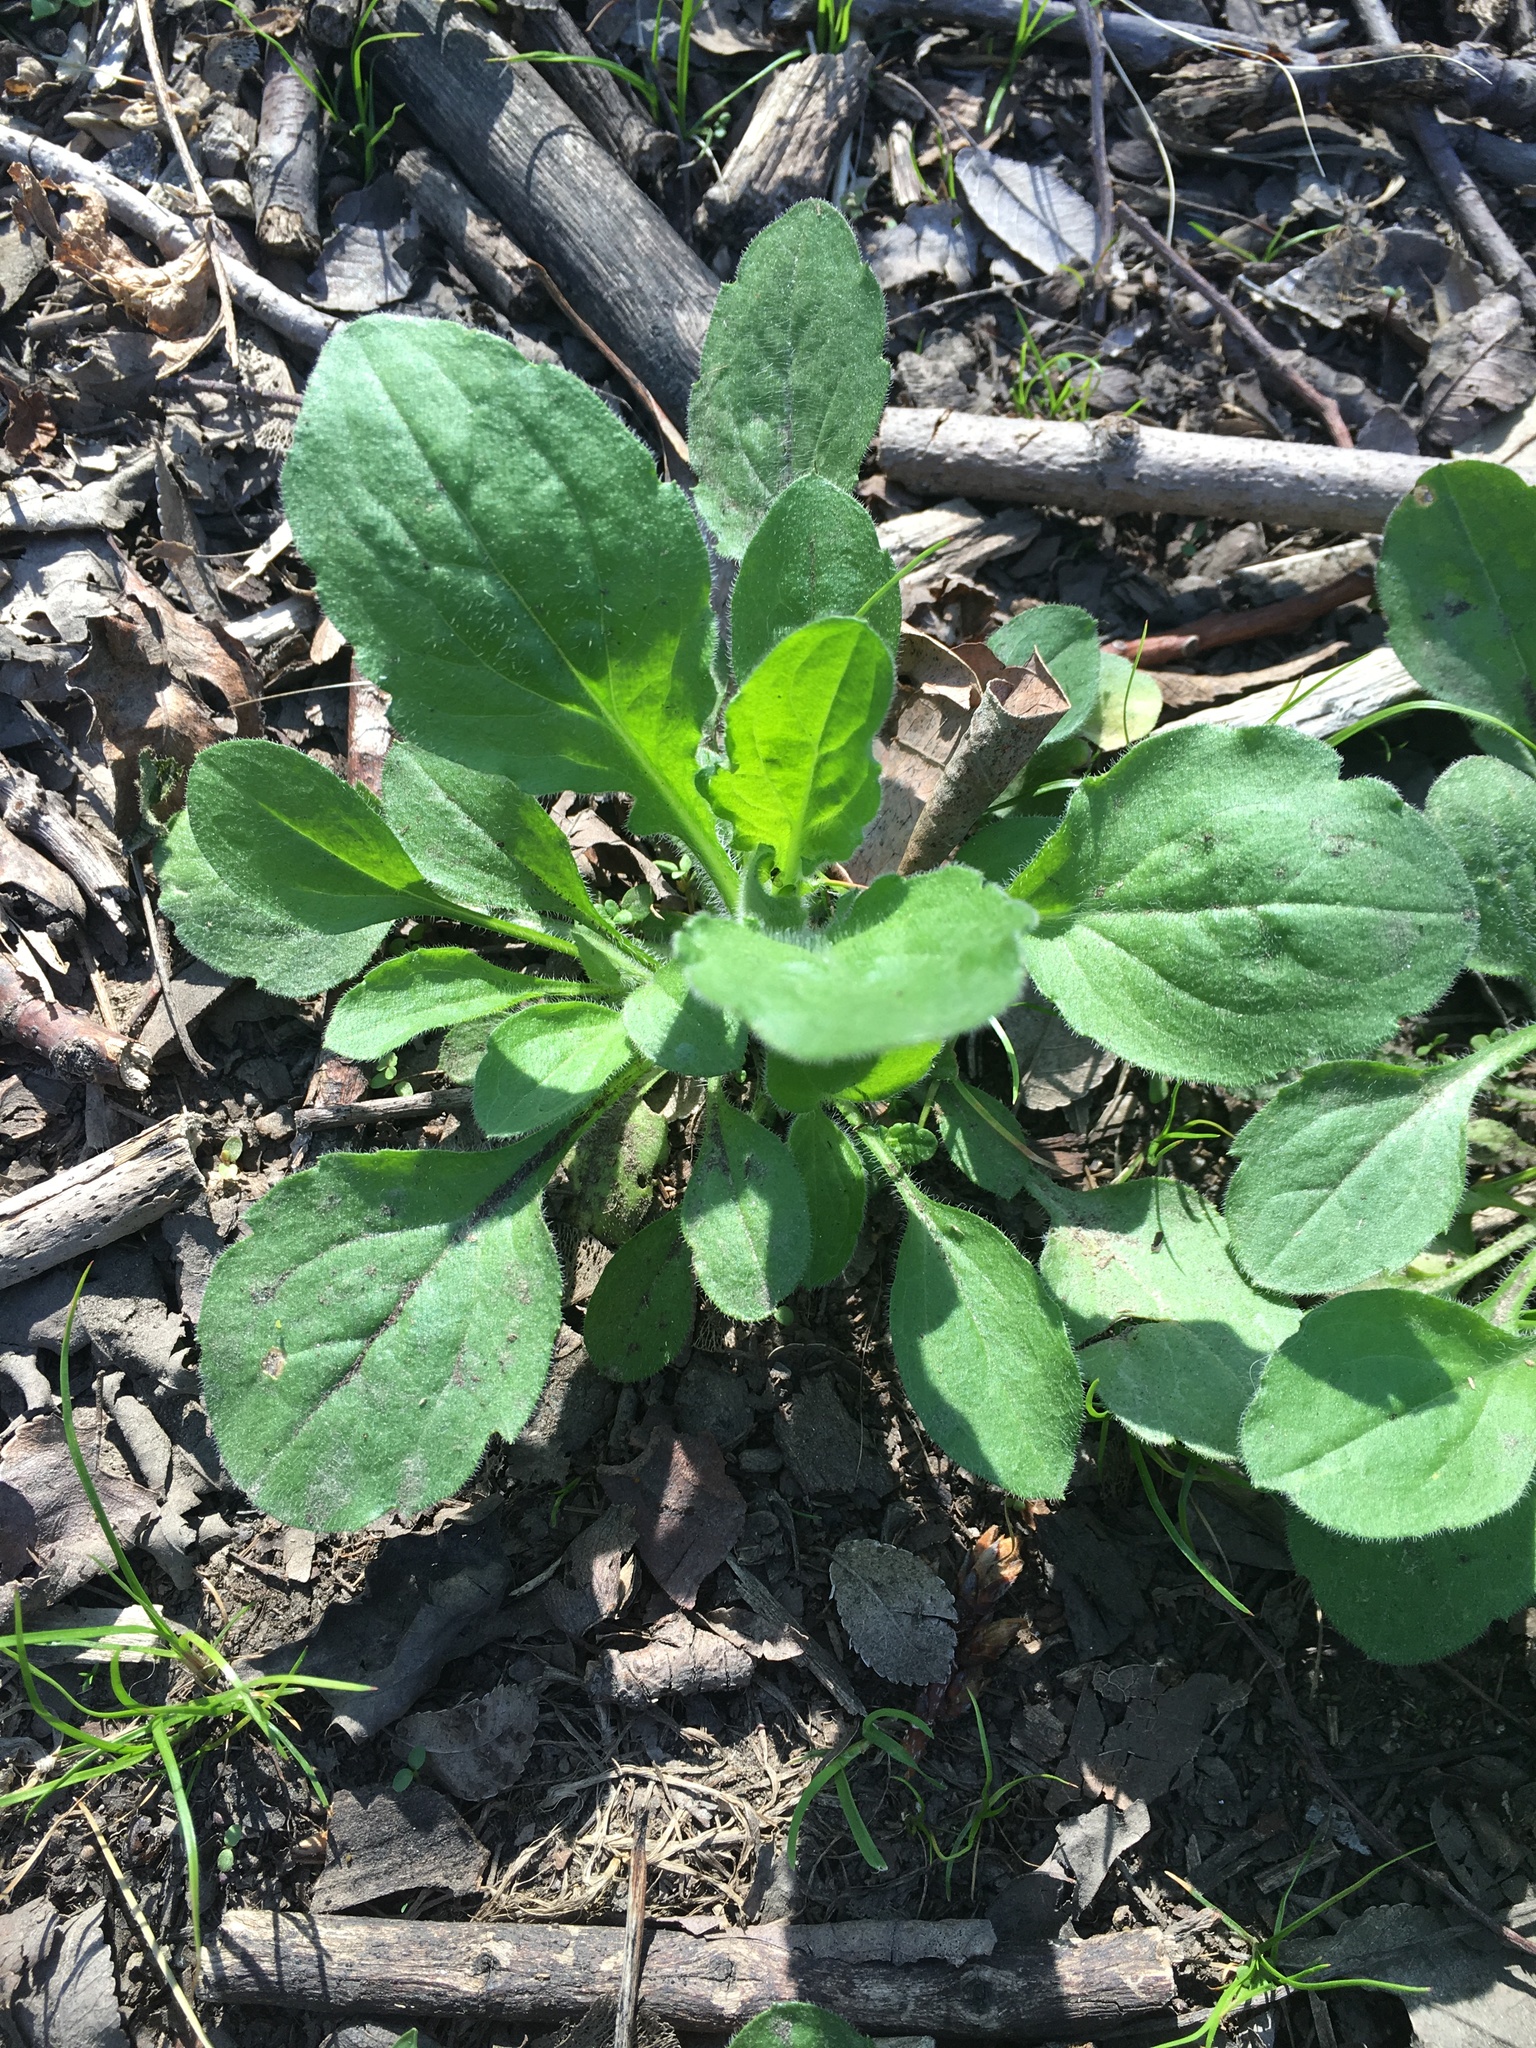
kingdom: Plantae
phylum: Tracheophyta
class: Magnoliopsida
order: Asterales
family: Asteraceae
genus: Erigeron
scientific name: Erigeron annuus
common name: Tall fleabane
